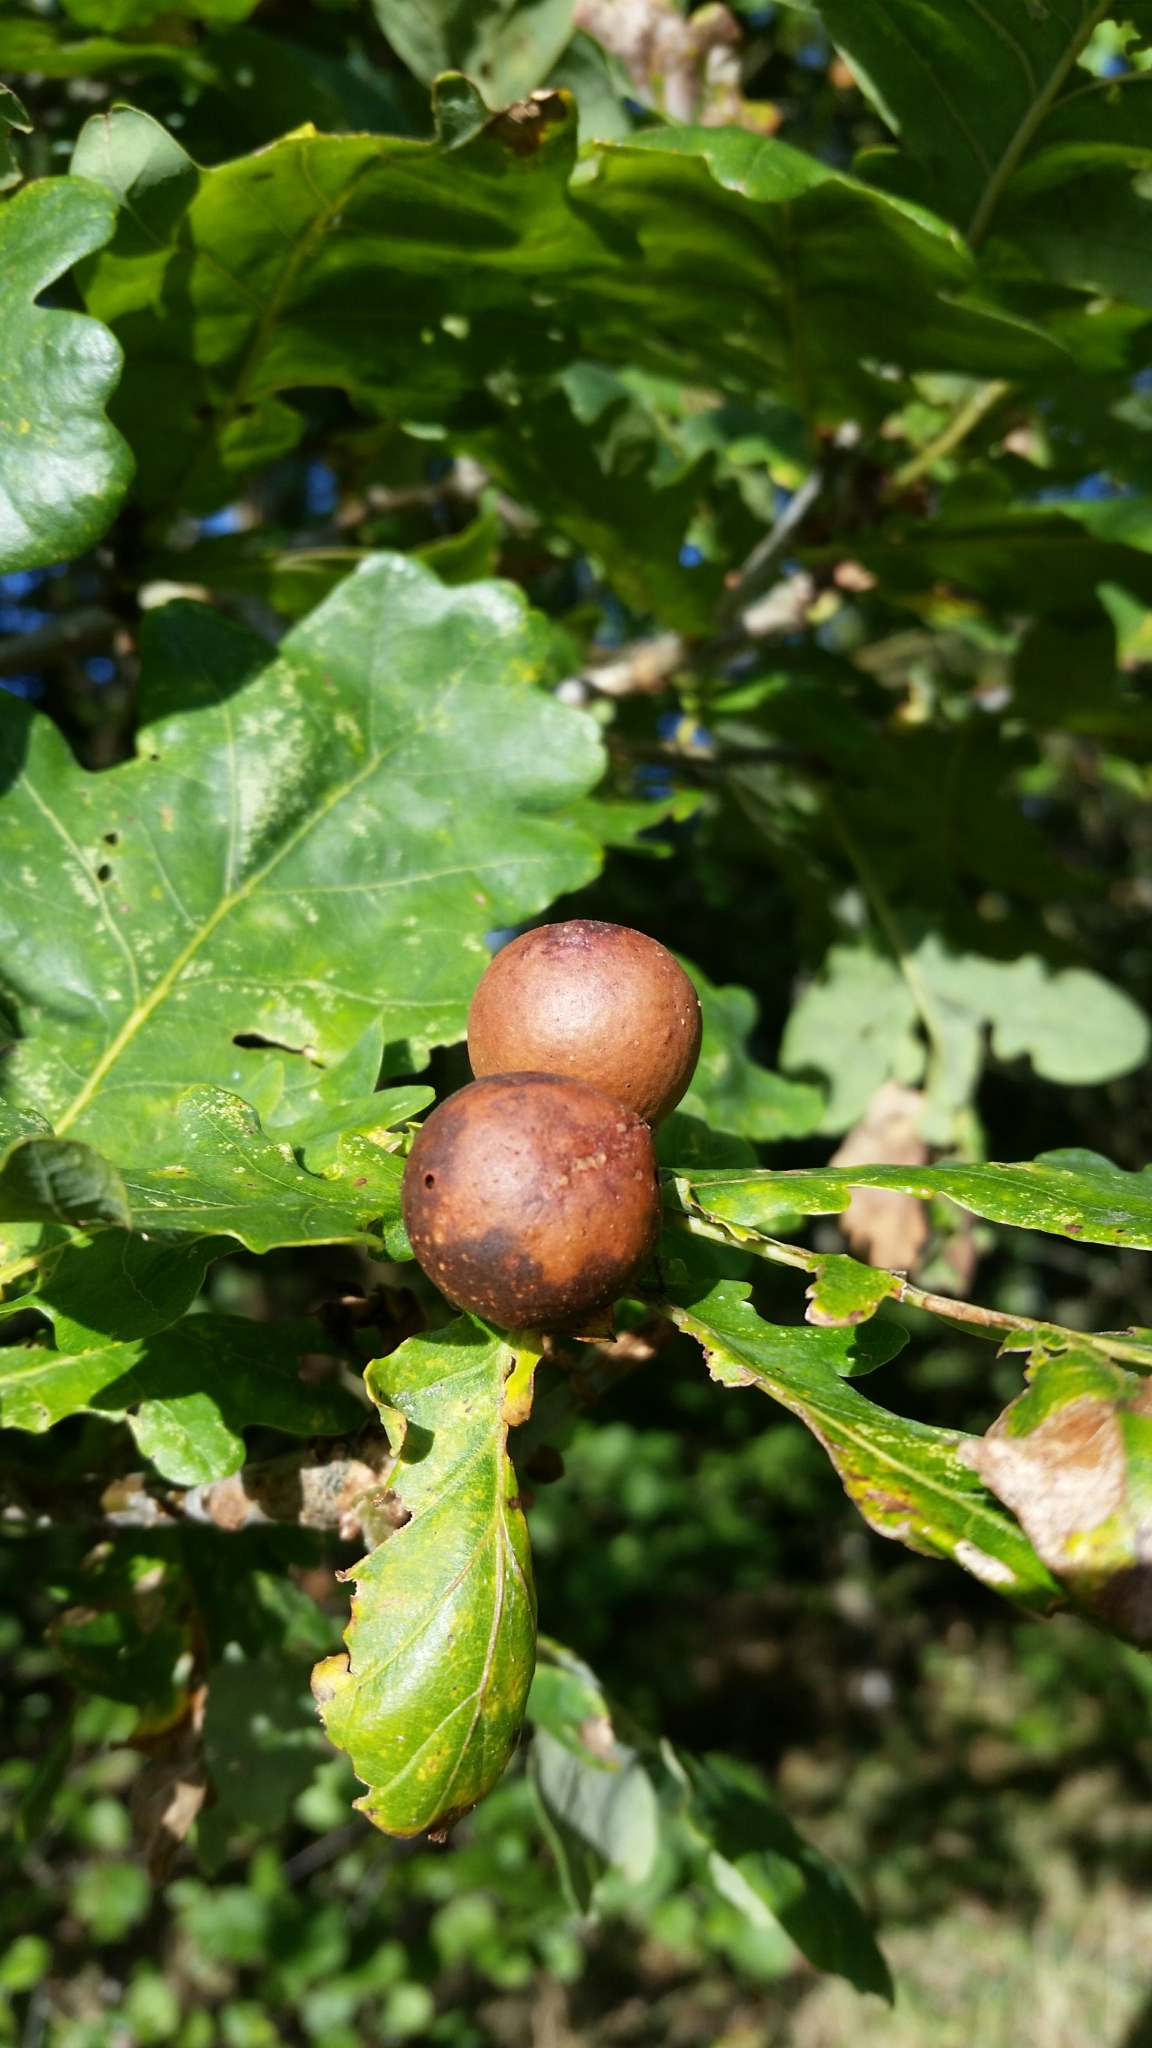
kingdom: Animalia
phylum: Arthropoda
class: Insecta
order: Hymenoptera
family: Cynipidae
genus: Andricus
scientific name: Andricus kollari
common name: Marble gall
